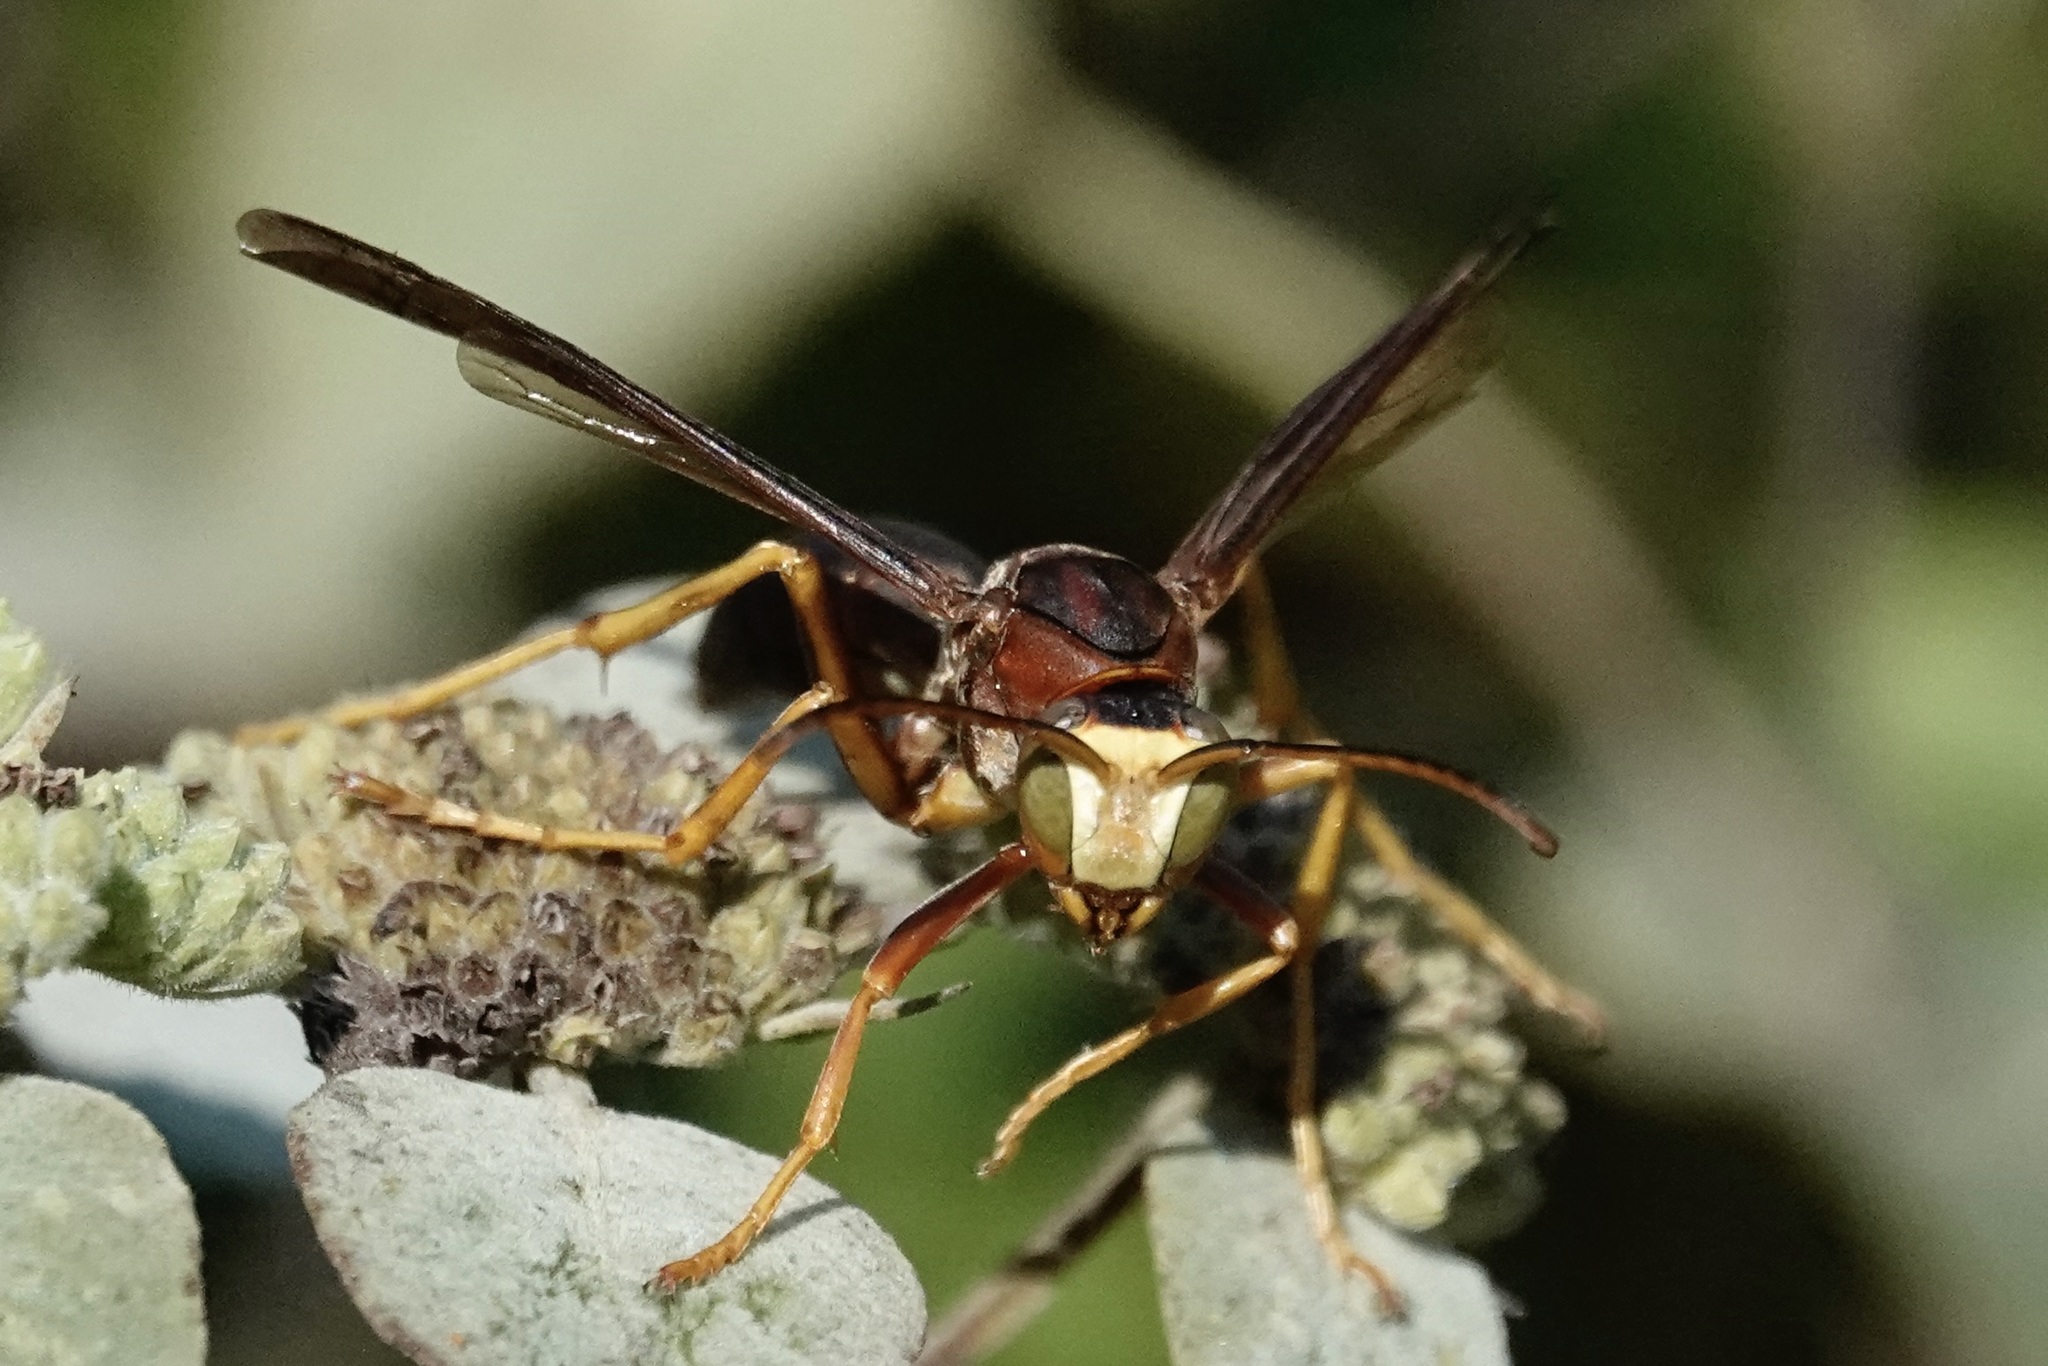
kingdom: Animalia
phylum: Arthropoda
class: Insecta
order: Hymenoptera
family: Eumenidae
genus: Polistes
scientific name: Polistes metricus
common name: Metric paper wasp
